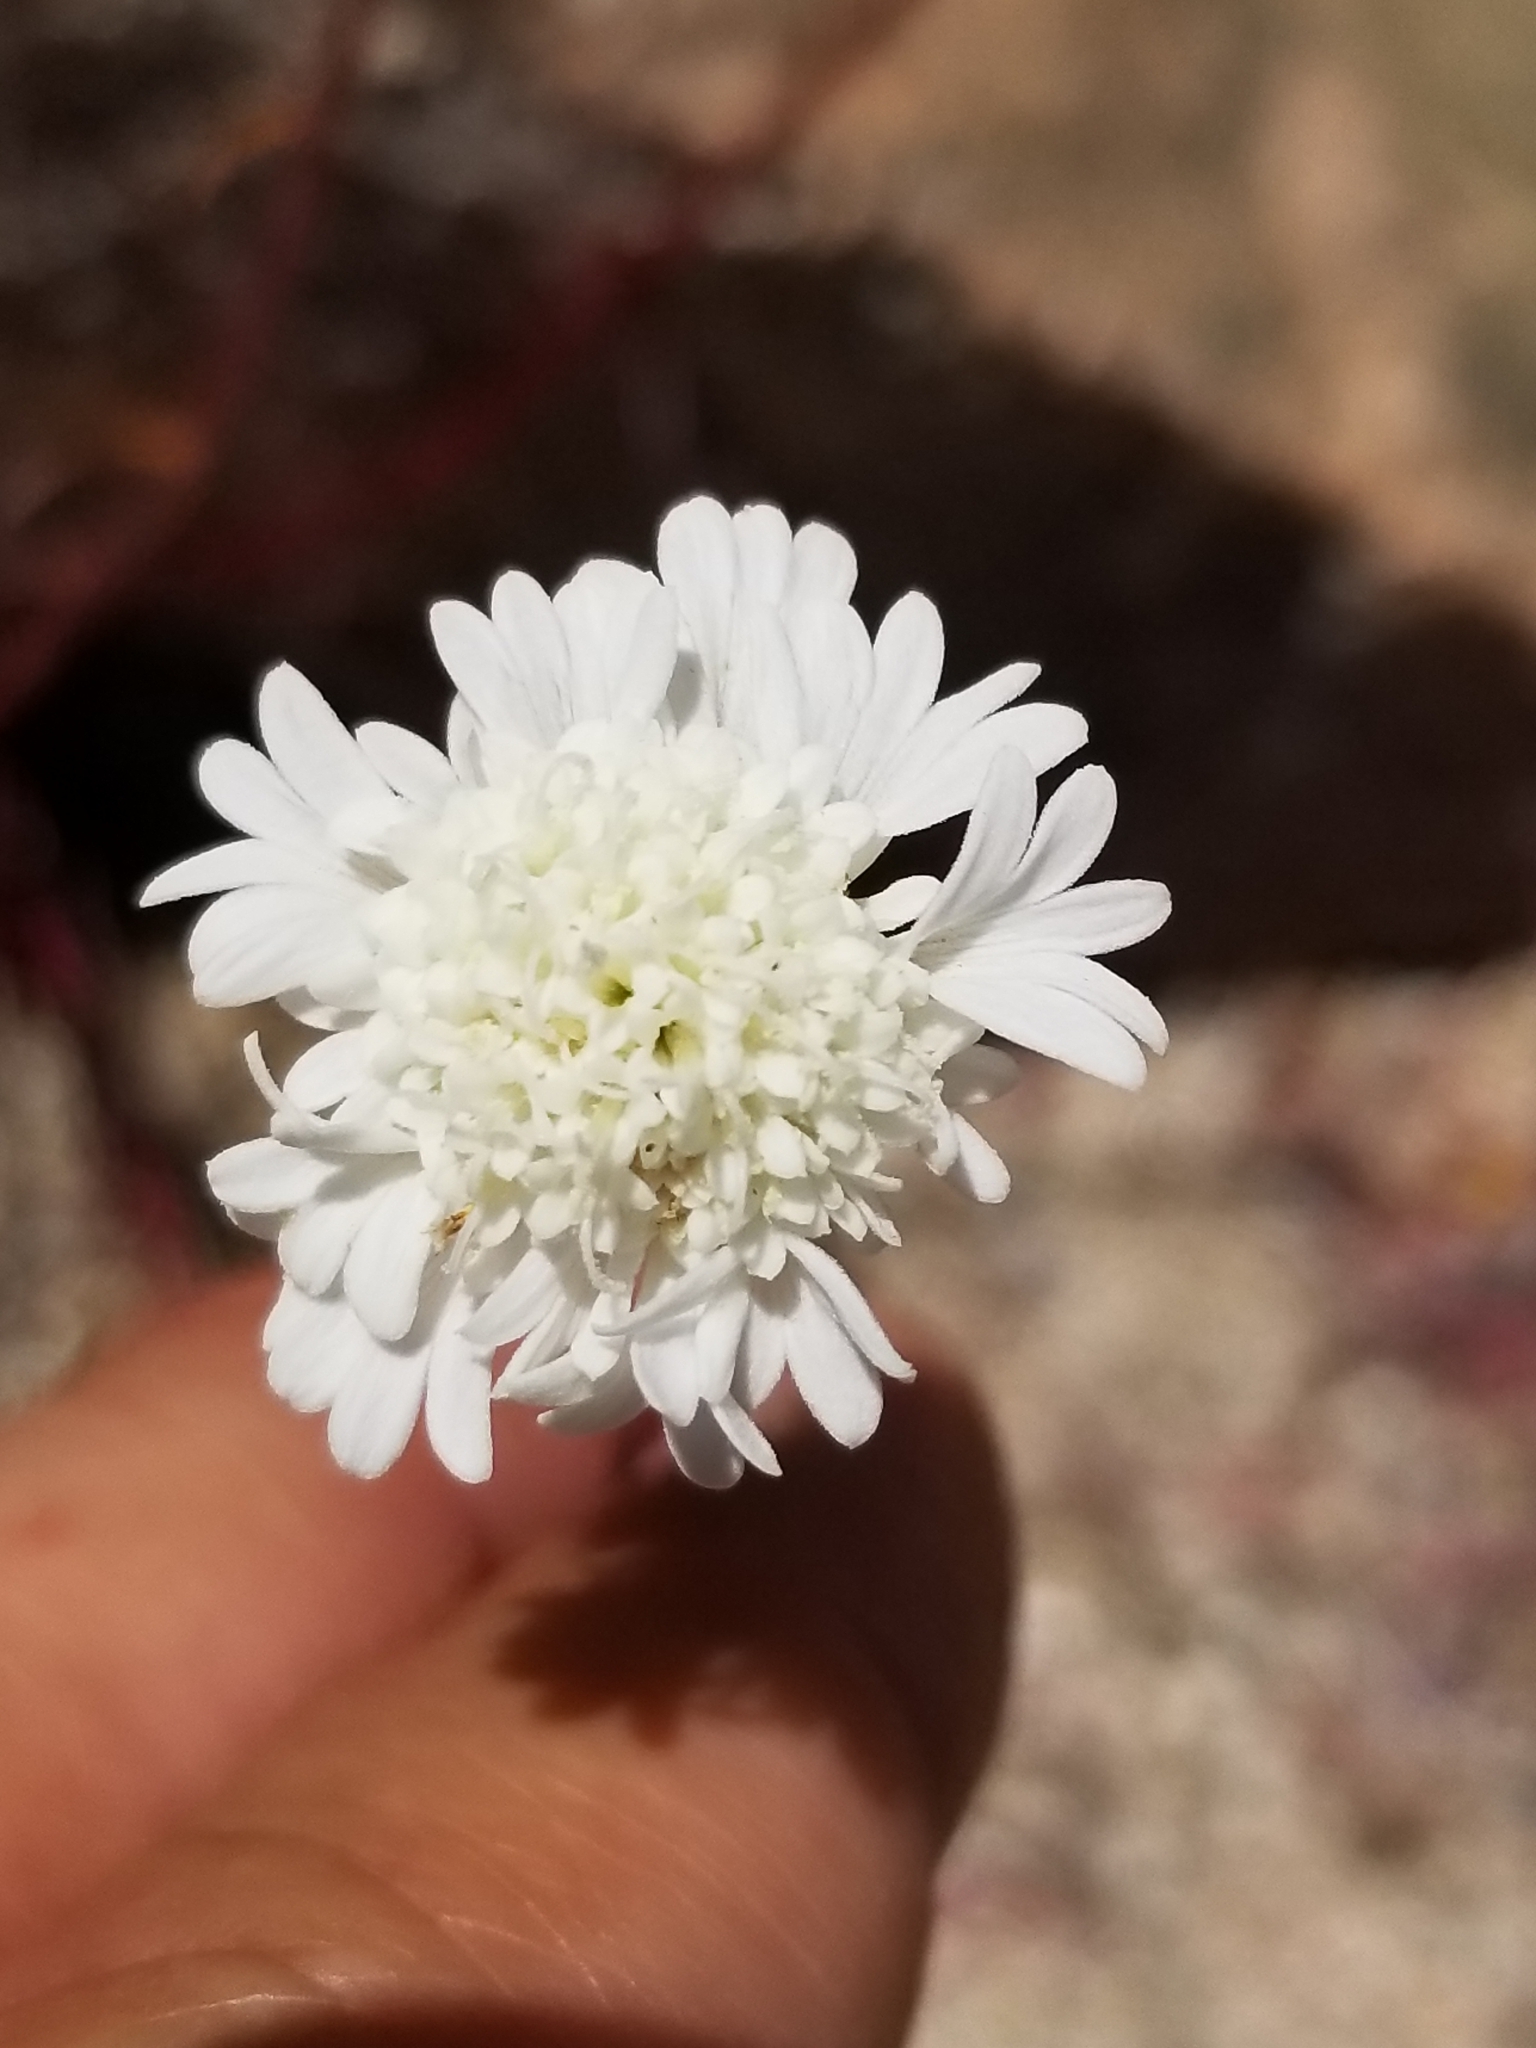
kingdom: Plantae
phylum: Tracheophyta
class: Magnoliopsida
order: Asterales
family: Asteraceae
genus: Chaenactis
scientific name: Chaenactis fremontii
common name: Fremont pincushion
